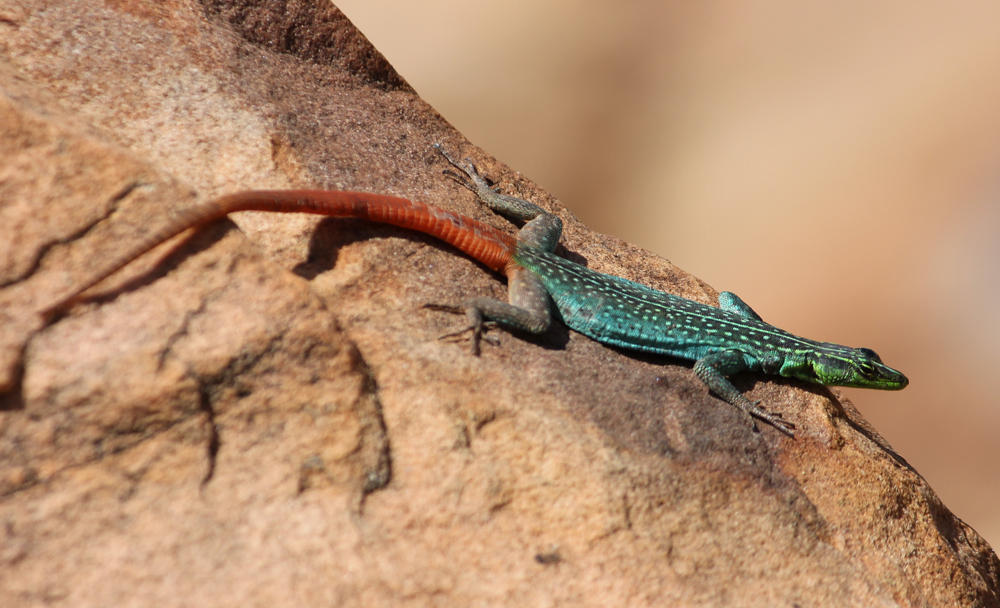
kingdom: Animalia
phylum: Chordata
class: Squamata
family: Cordylidae
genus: Platysaurus
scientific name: Platysaurus relictus
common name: Soutpansberg flat lizard
